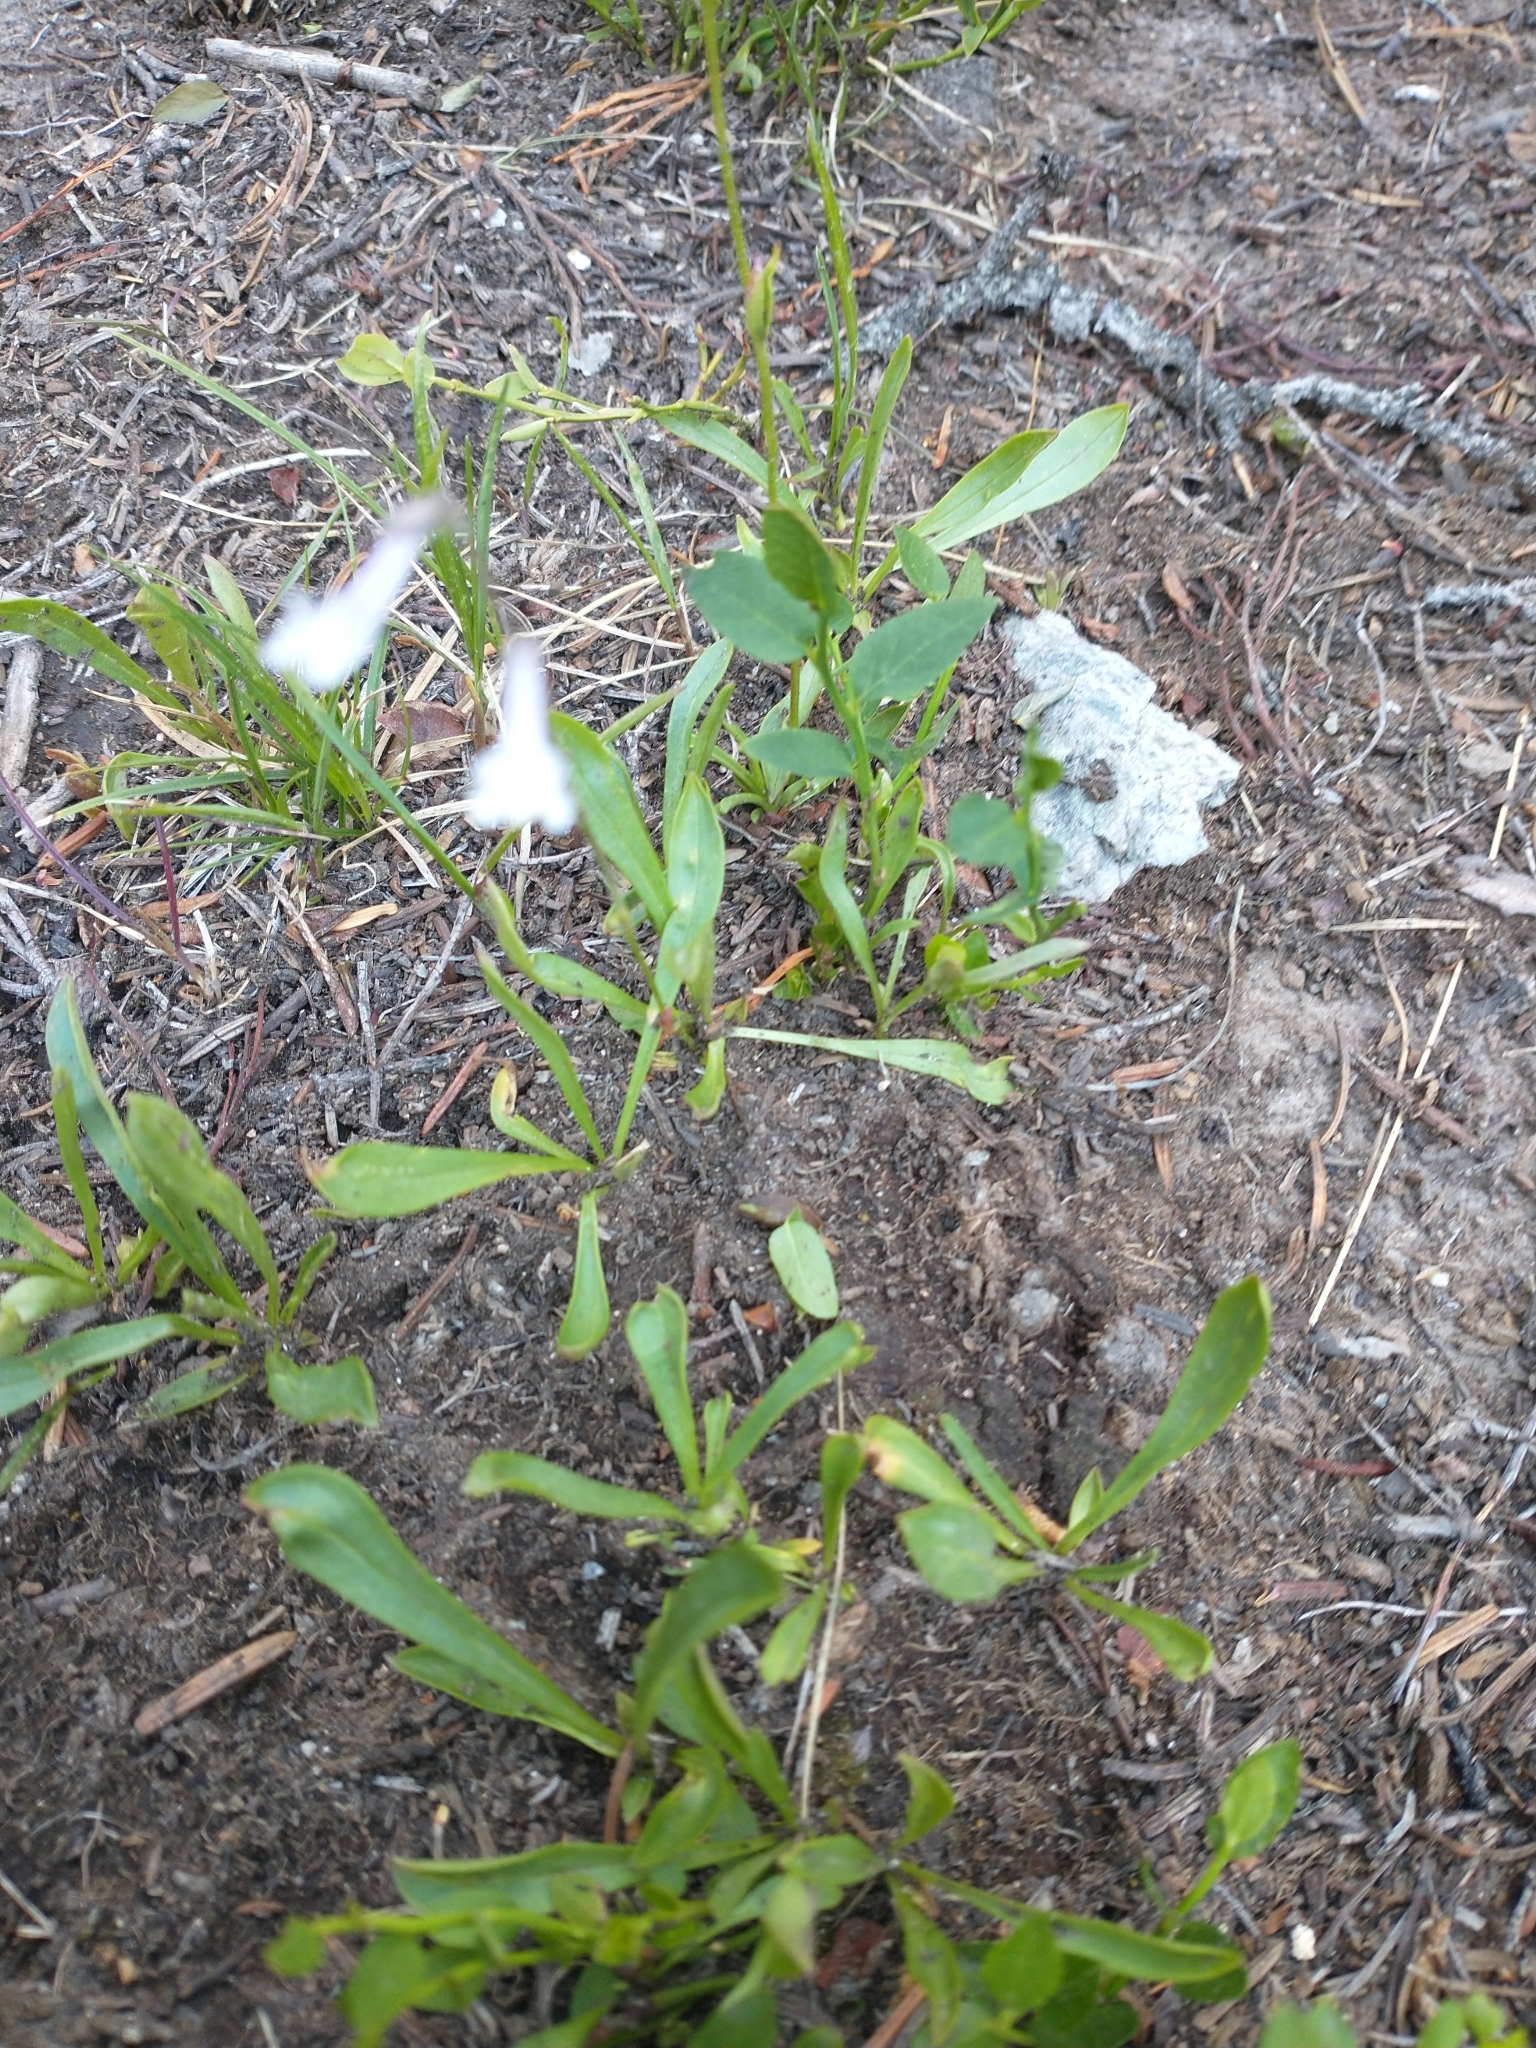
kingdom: Plantae
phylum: Tracheophyta
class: Magnoliopsida
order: Lamiales
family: Plantaginaceae
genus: Chionophila
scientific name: Chionophila tweedyi
